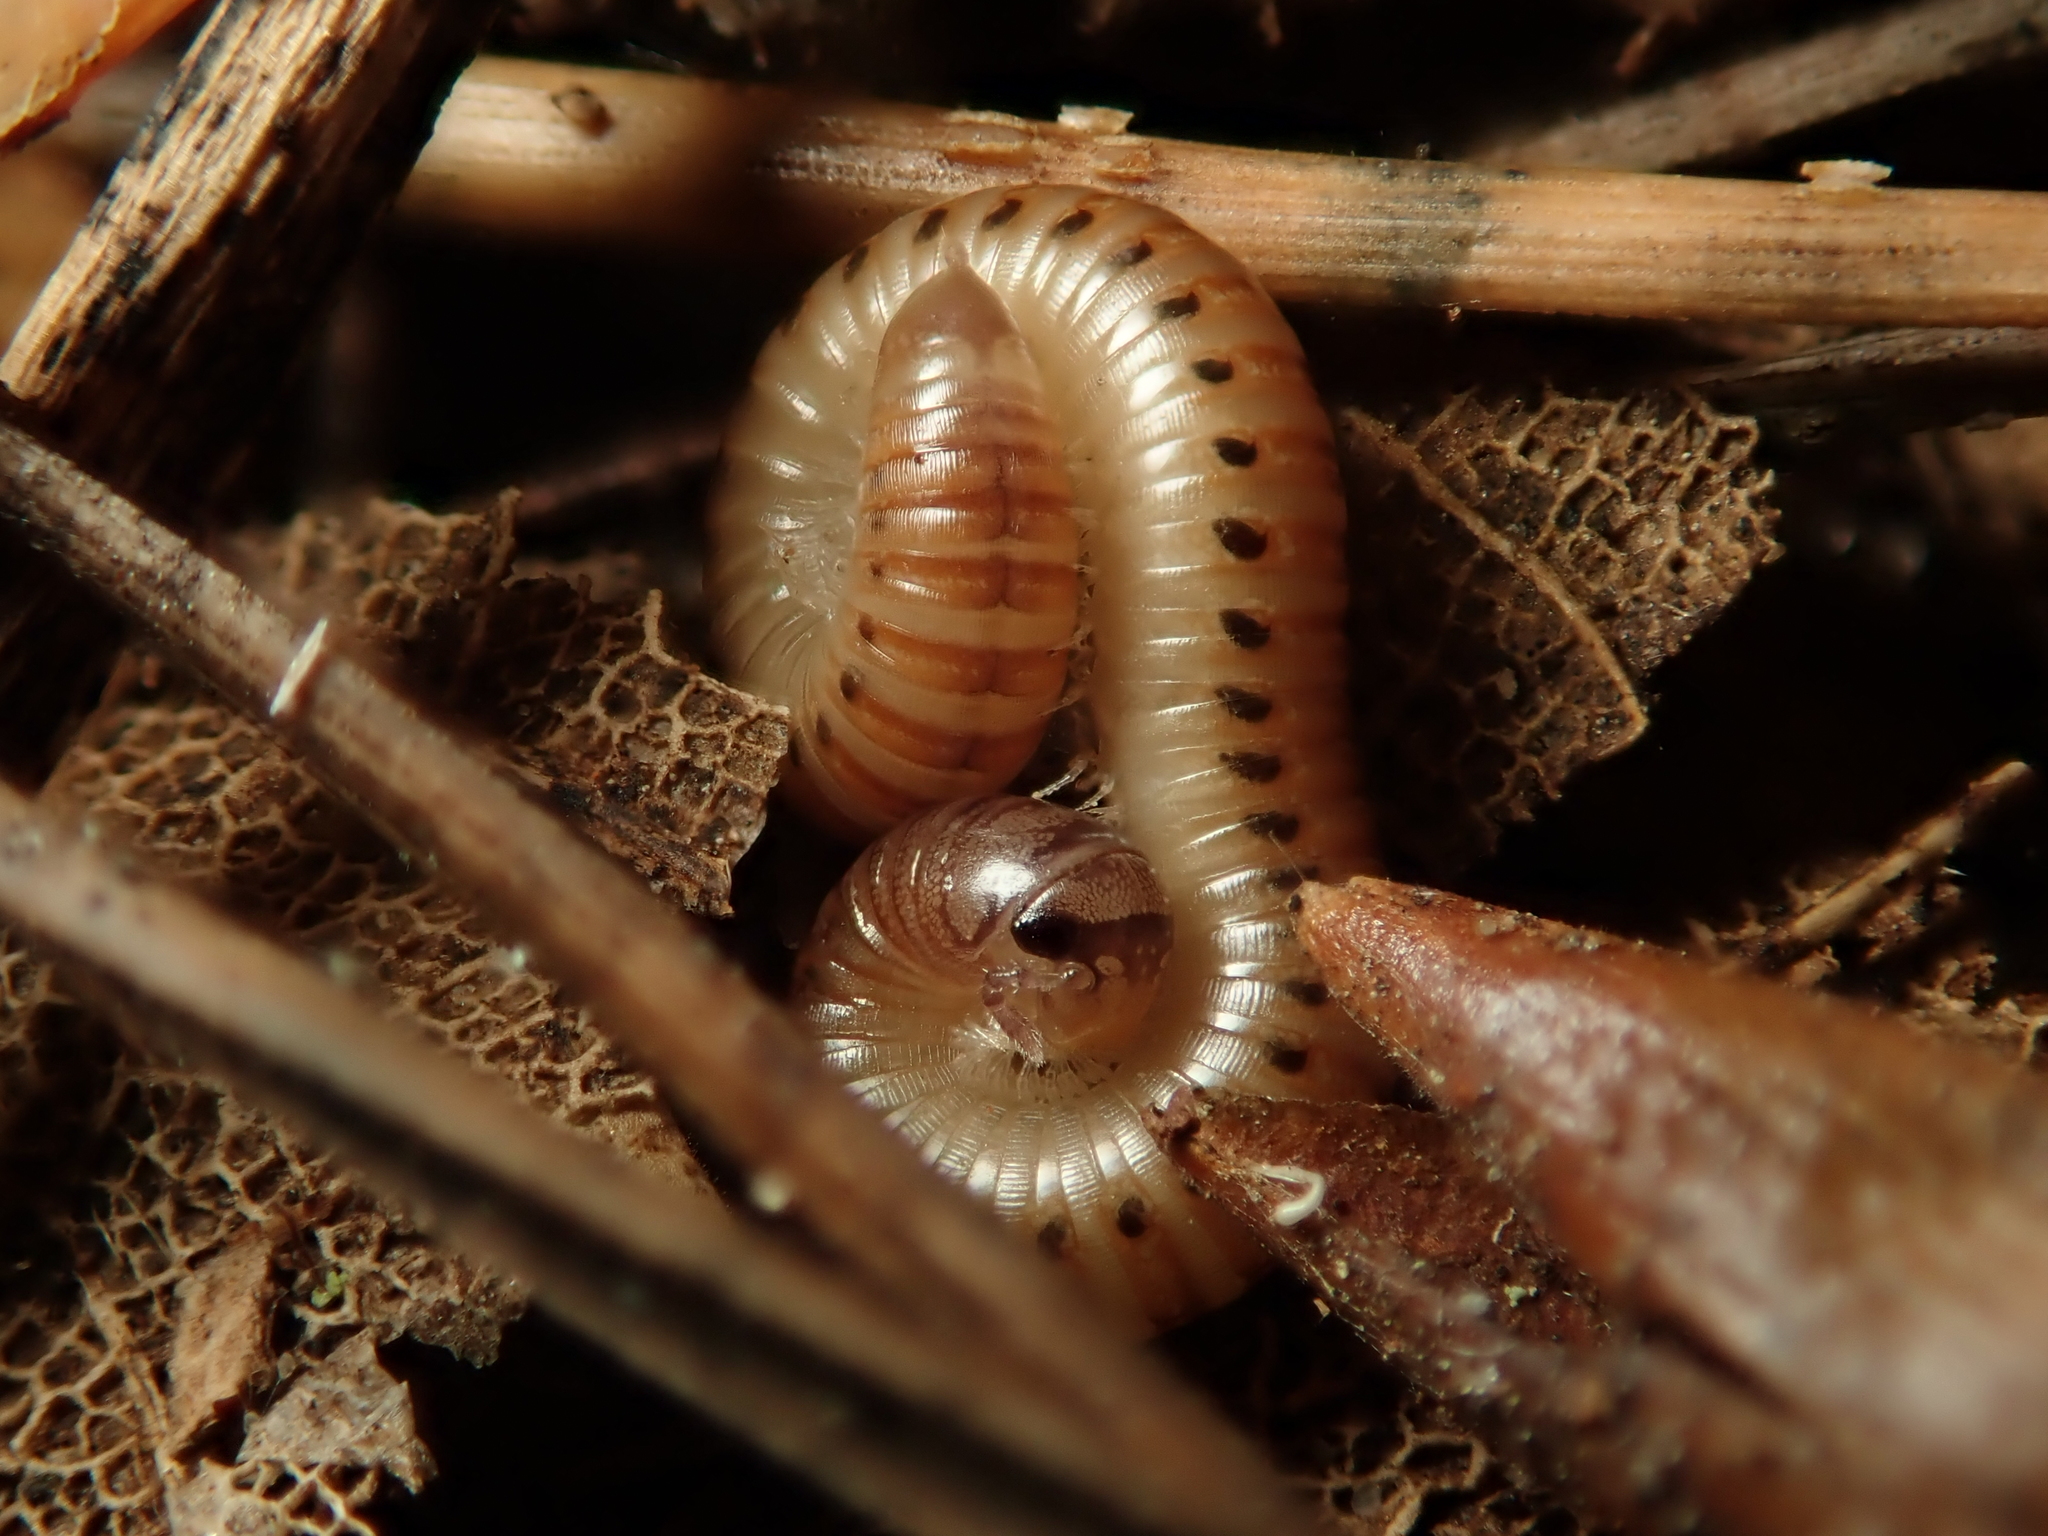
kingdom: Animalia
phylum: Arthropoda
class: Diplopoda
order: Julida
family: Julidae
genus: Cylindroiulus
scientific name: Cylindroiulus punctatus
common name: Blunt-tailed millipede
